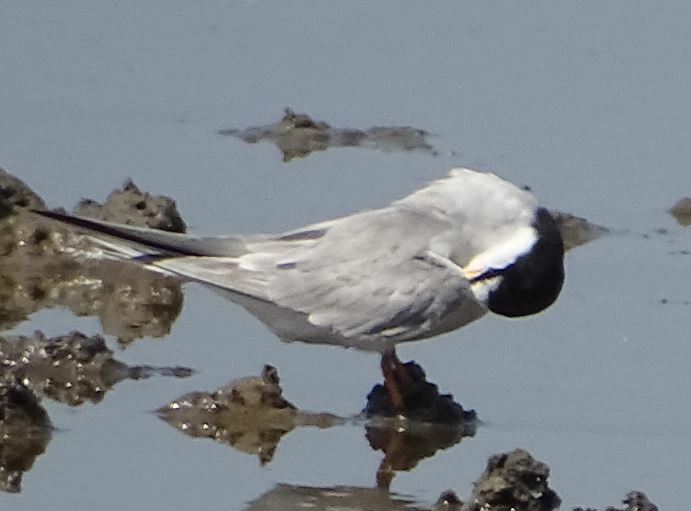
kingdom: Animalia
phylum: Chordata
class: Aves
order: Charadriiformes
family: Laridae
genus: Sternula
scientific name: Sternula albifrons
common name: Little tern
